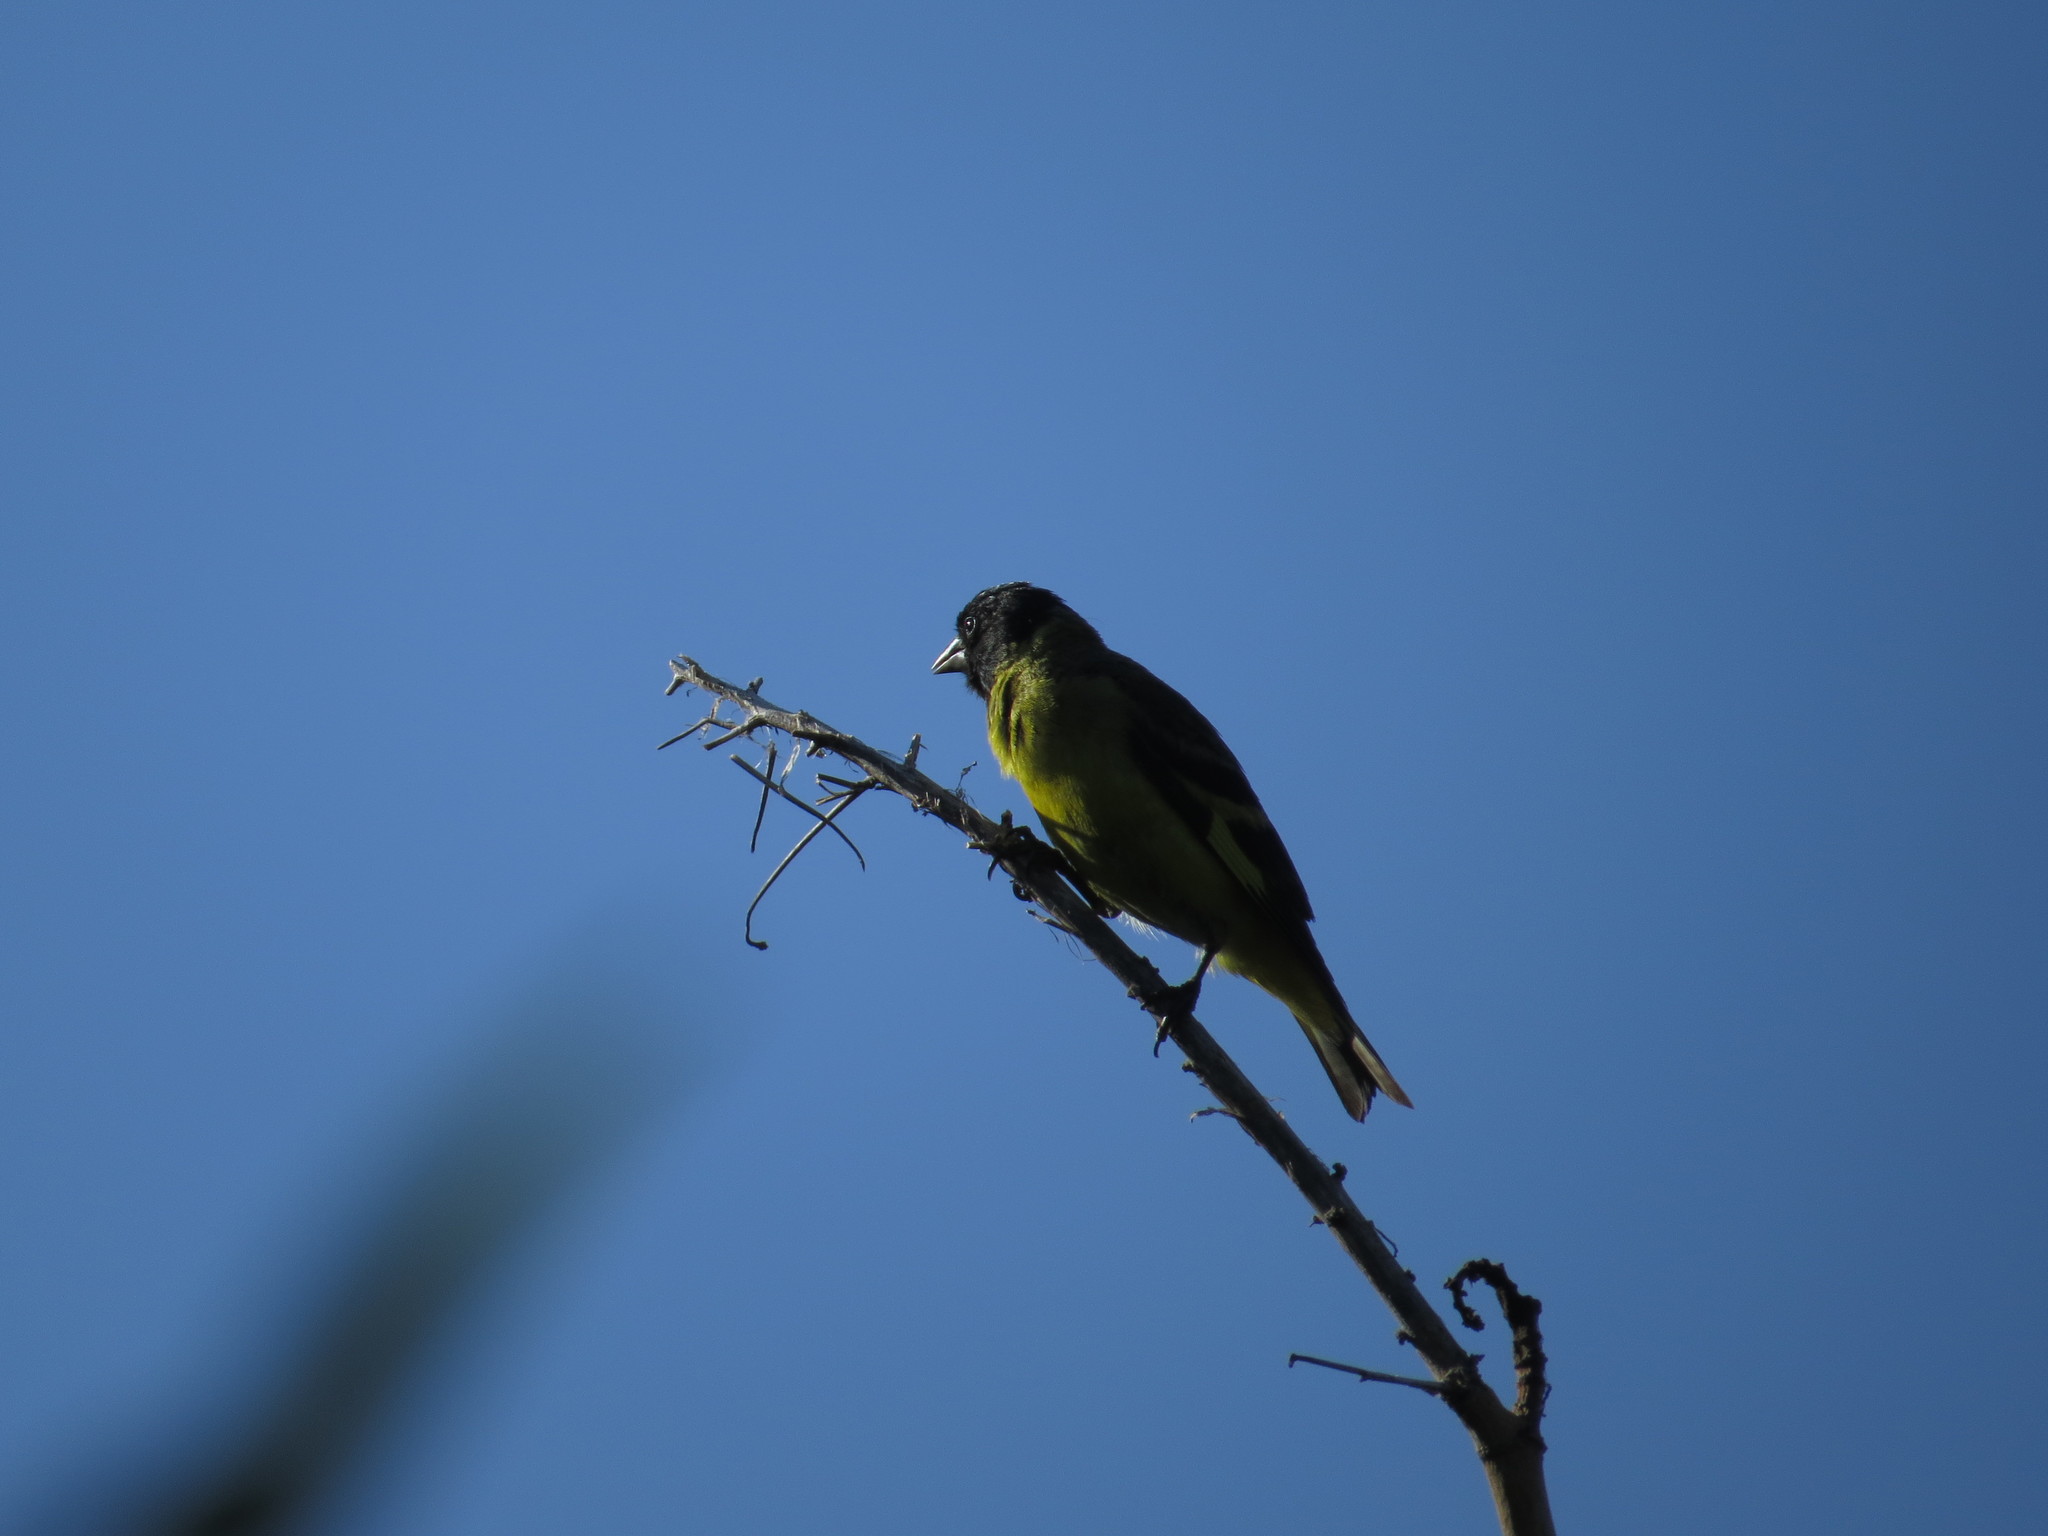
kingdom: Animalia
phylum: Chordata
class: Aves
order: Passeriformes
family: Fringillidae
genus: Spinus
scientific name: Spinus magellanicus
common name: Hooded siskin
